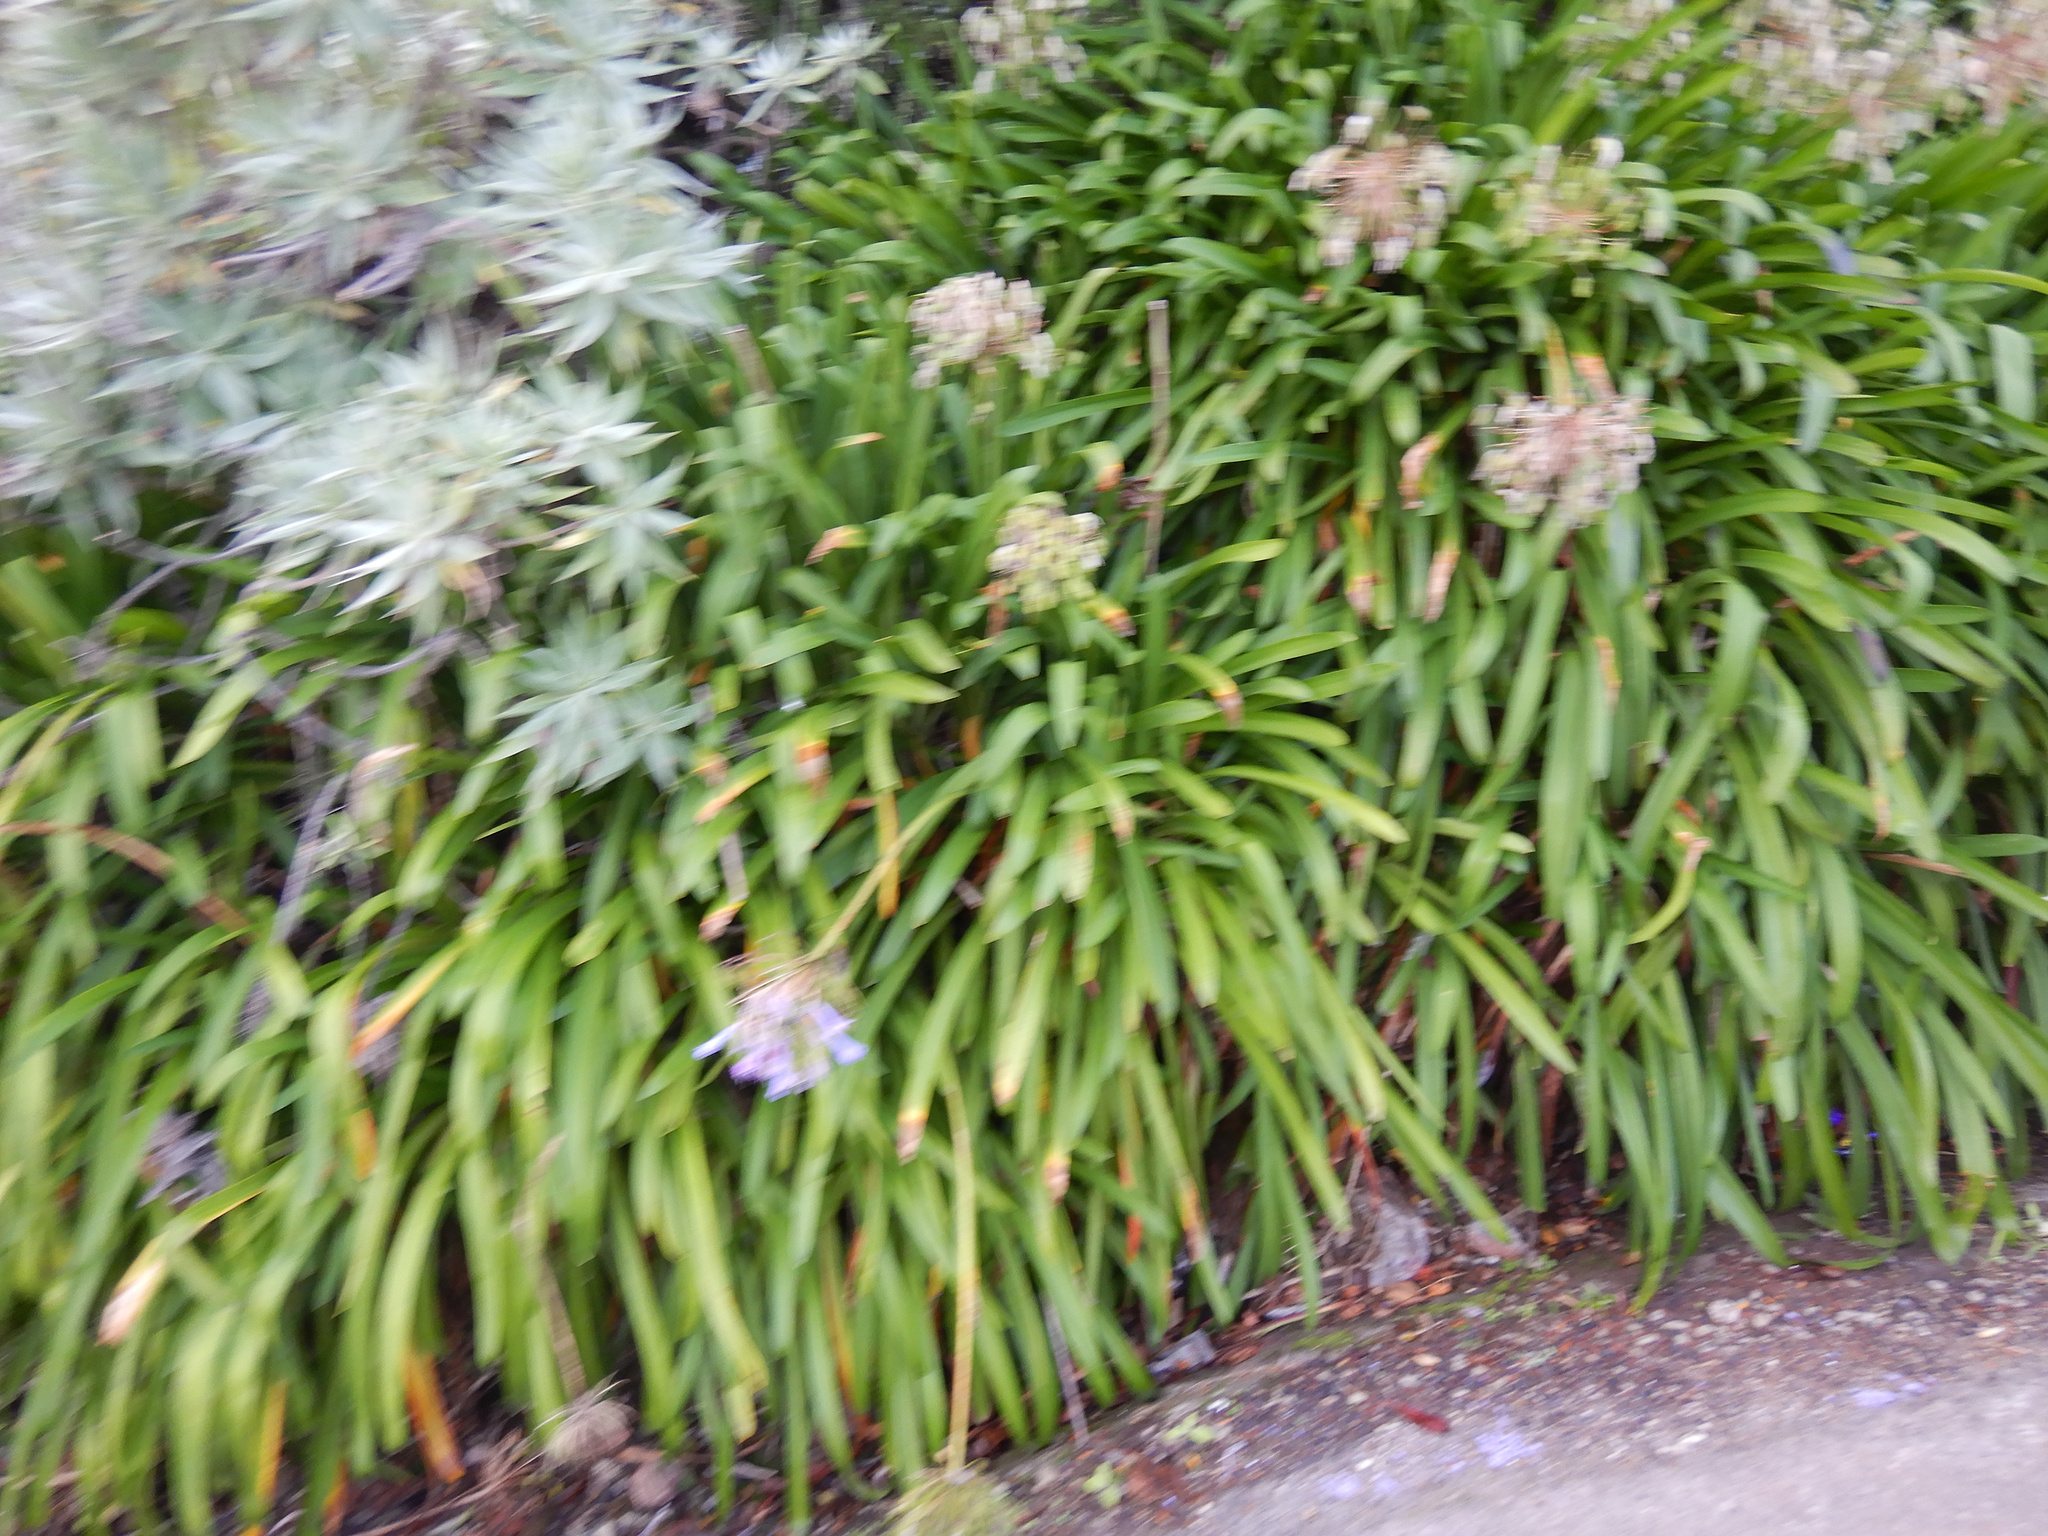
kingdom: Plantae
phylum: Tracheophyta
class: Liliopsida
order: Asparagales
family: Amaryllidaceae
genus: Agapanthus
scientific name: Agapanthus praecox
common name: African-lily
